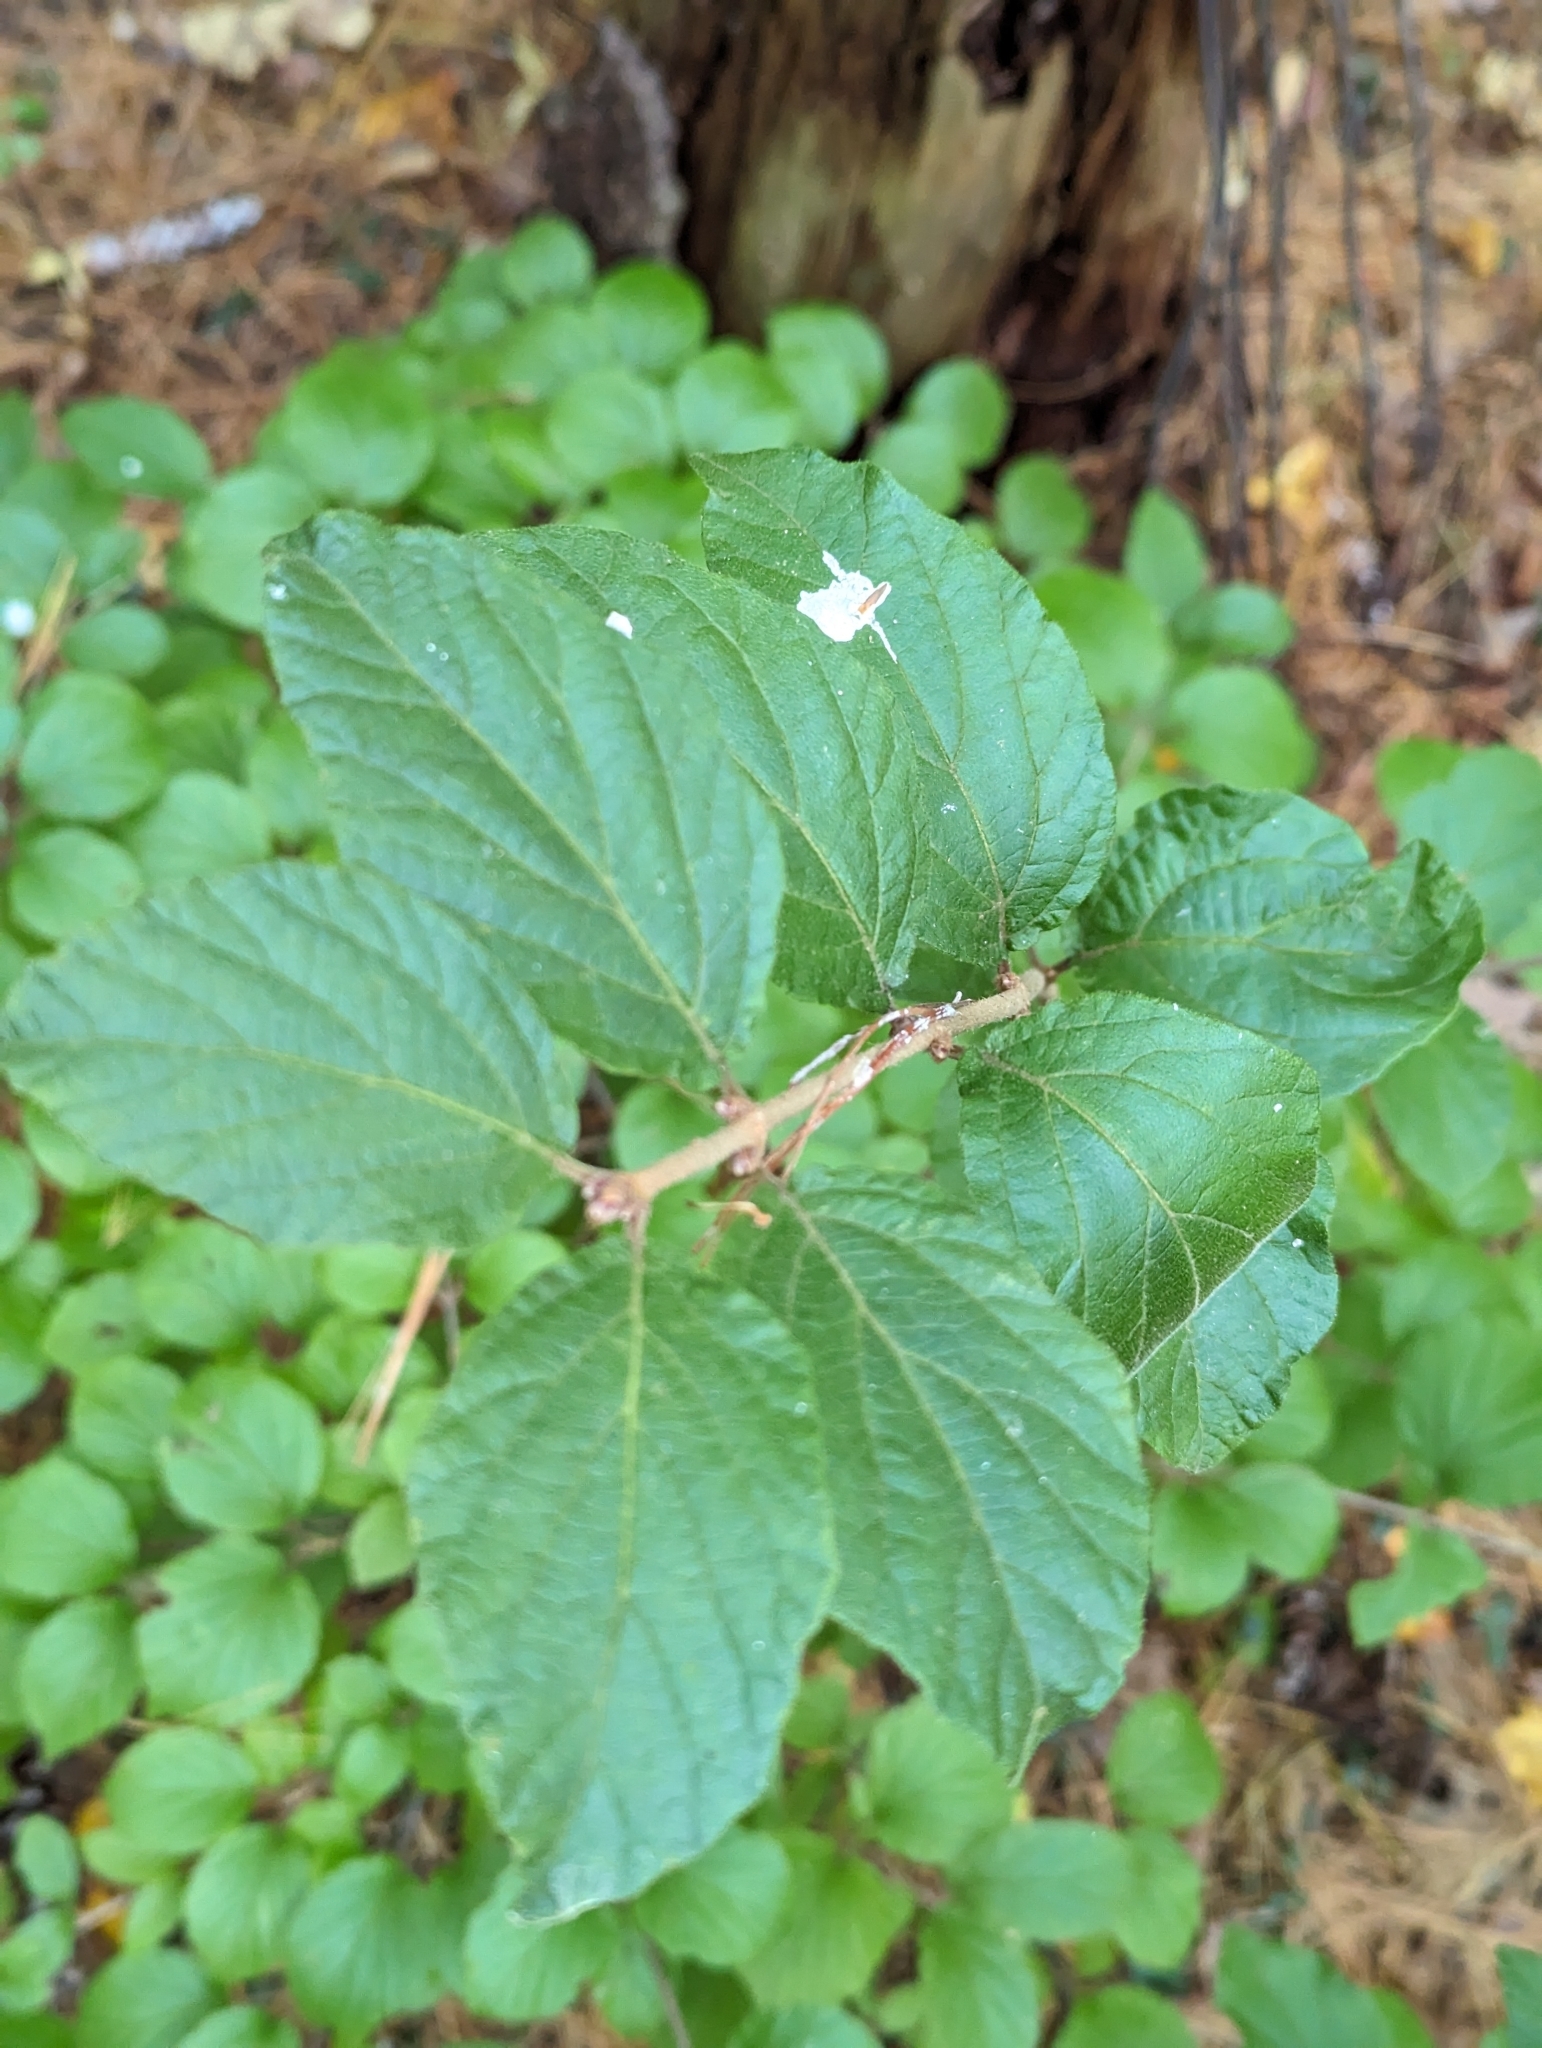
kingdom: Plantae
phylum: Tracheophyta
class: Magnoliopsida
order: Dipsacales
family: Viburnaceae
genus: Viburnum
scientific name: Viburnum dilatatum
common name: Linden arrowwood
